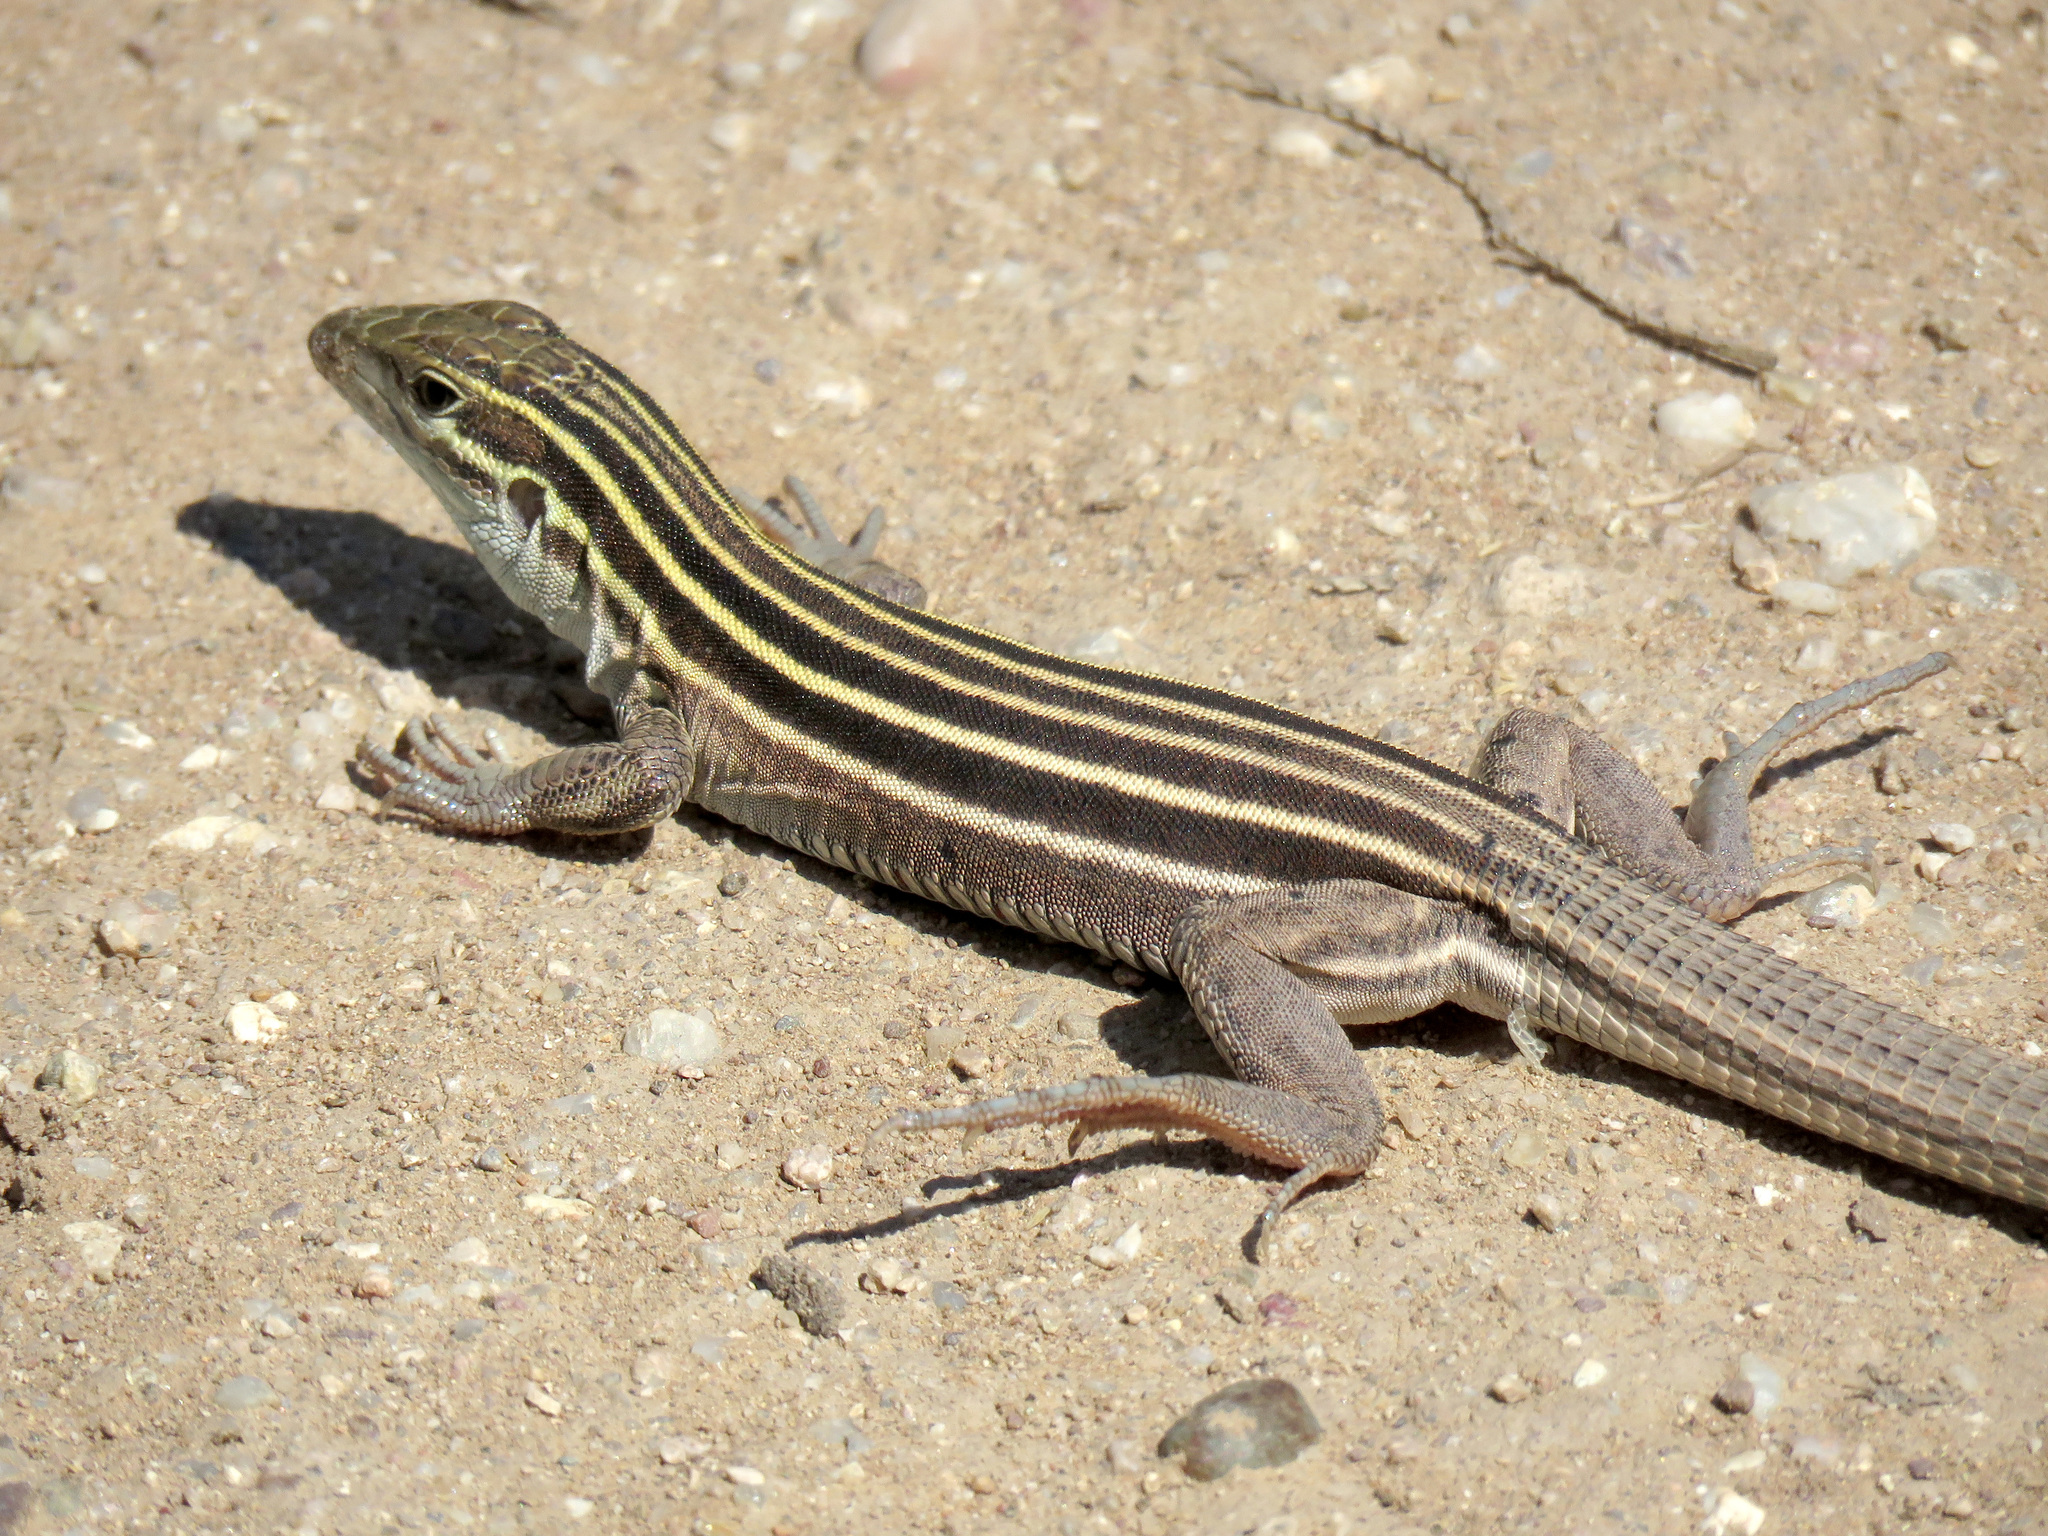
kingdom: Animalia
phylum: Chordata
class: Squamata
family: Teiidae
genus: Aspidoscelis
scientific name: Aspidoscelis uniparens
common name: Desert grassland whiptail
